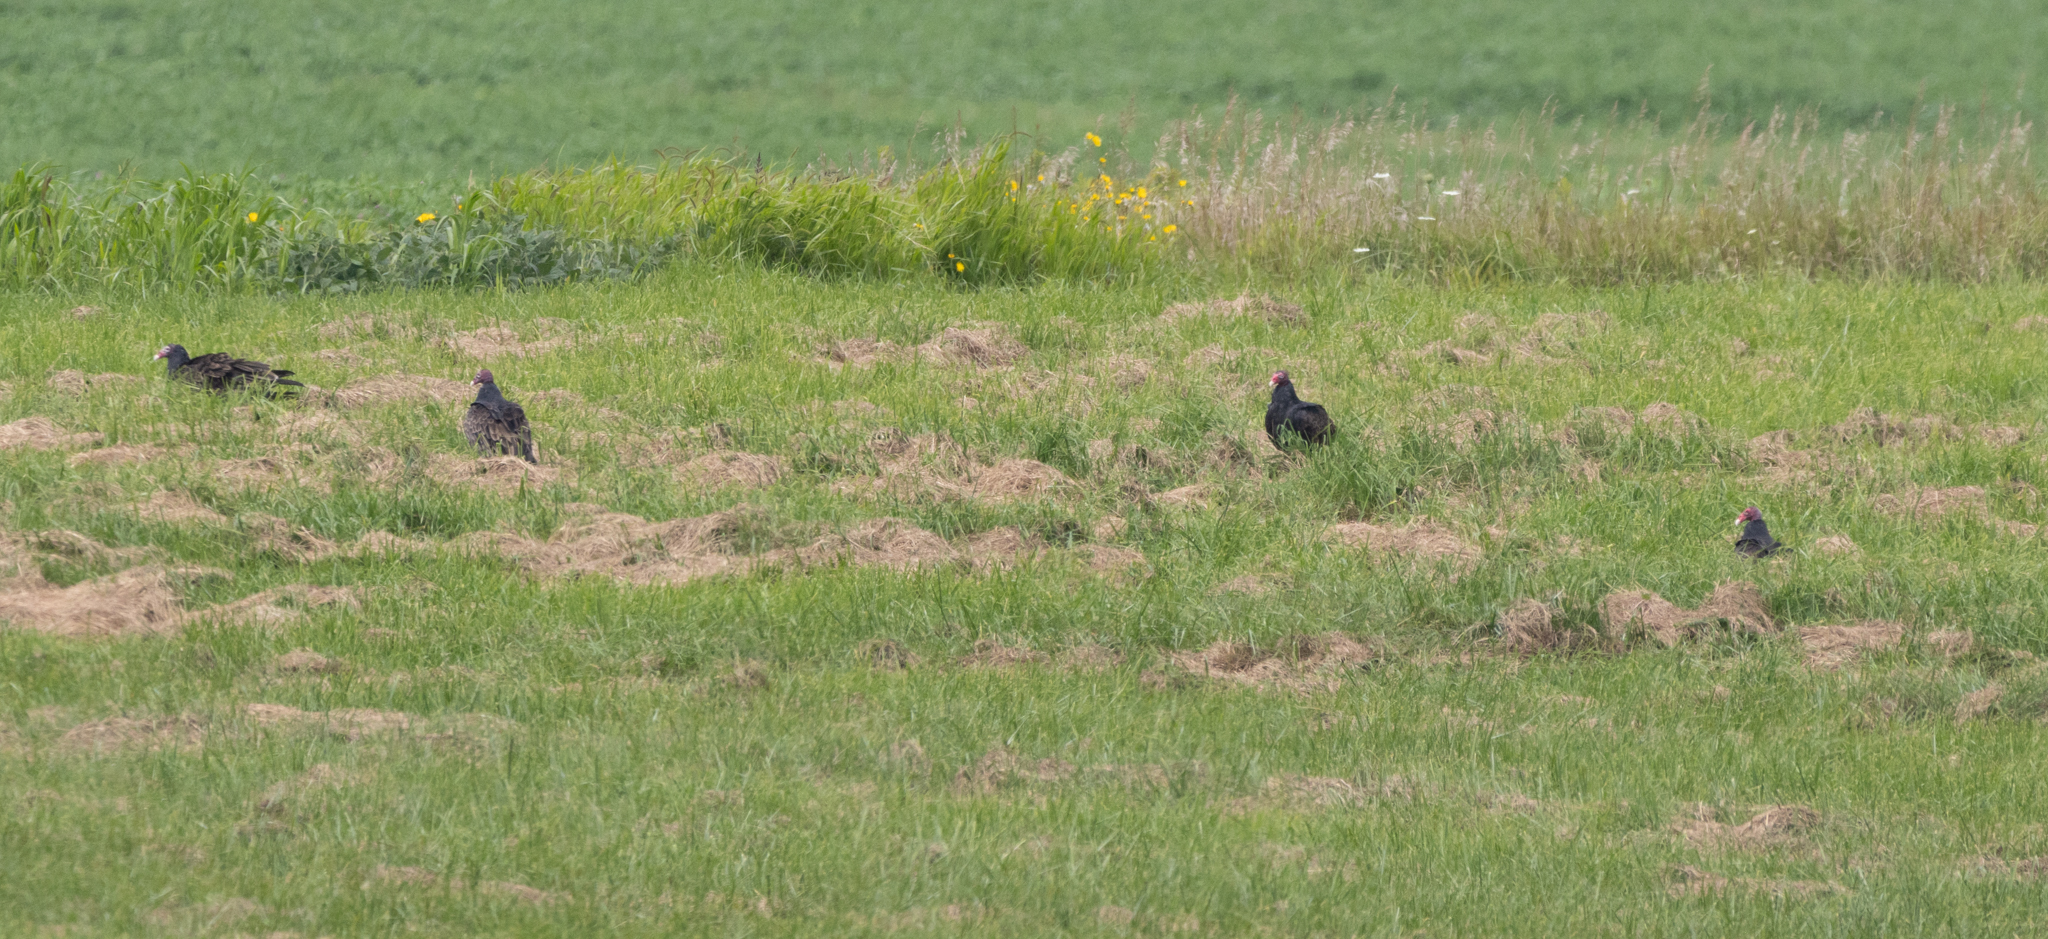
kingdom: Animalia
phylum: Chordata
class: Aves
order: Accipitriformes
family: Cathartidae
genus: Cathartes
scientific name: Cathartes aura
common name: Turkey vulture
